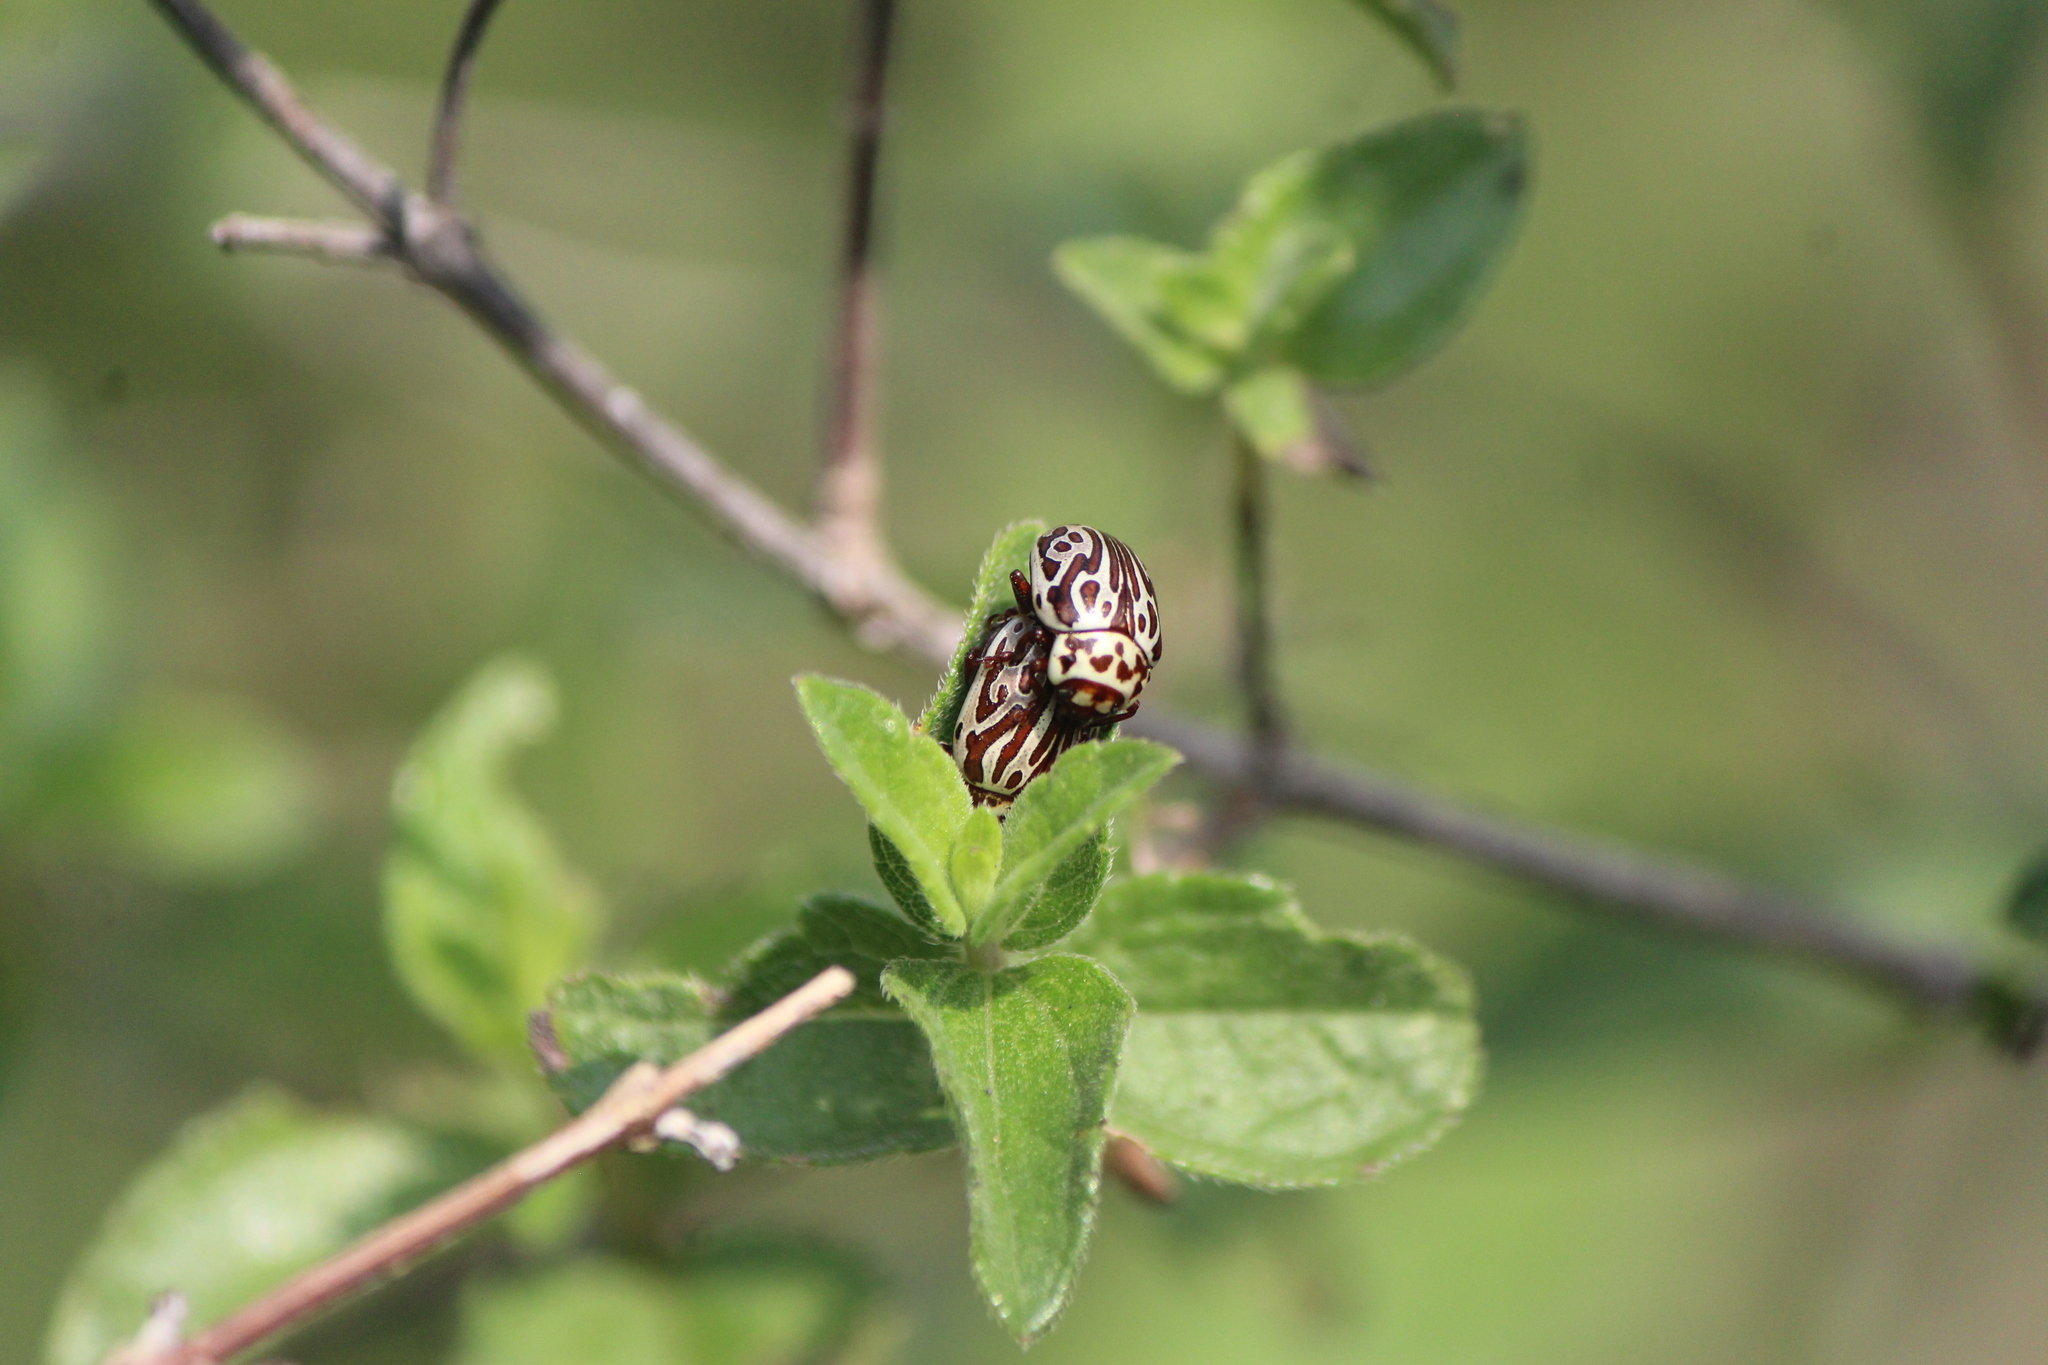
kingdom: Animalia
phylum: Arthropoda
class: Insecta
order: Coleoptera
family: Chrysomelidae
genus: Calligrapha
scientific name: Calligrapha thermalis
